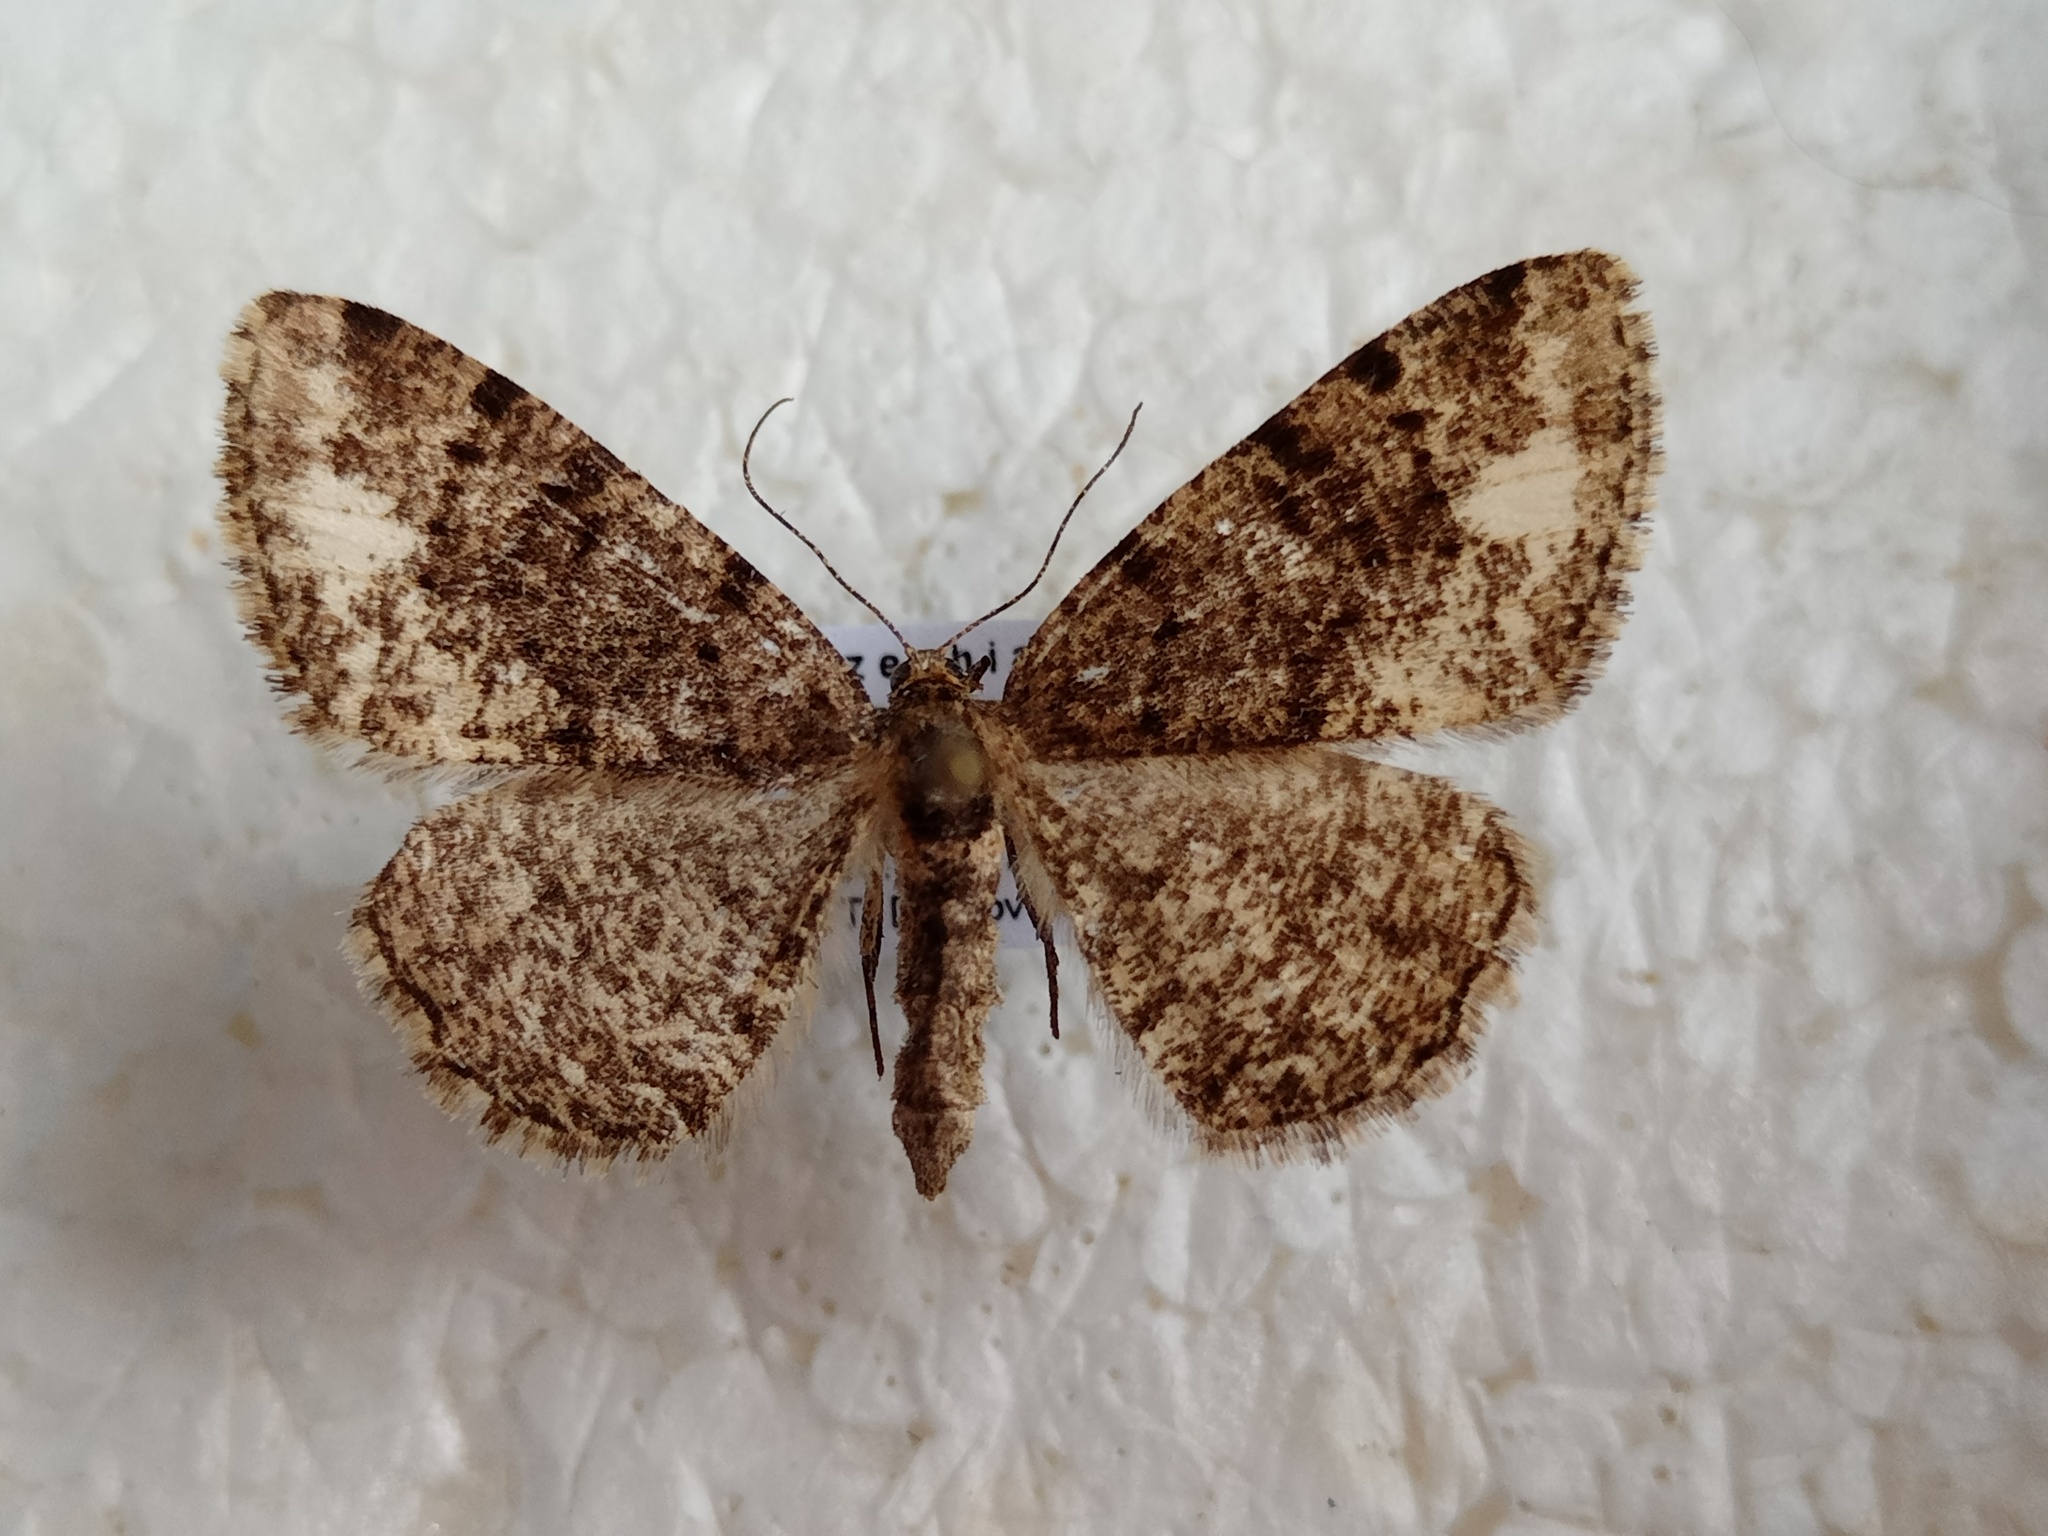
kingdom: Animalia
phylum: Arthropoda
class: Insecta
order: Lepidoptera
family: Geometridae
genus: Parectropis
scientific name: Parectropis similaria
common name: Brindled white-spot
